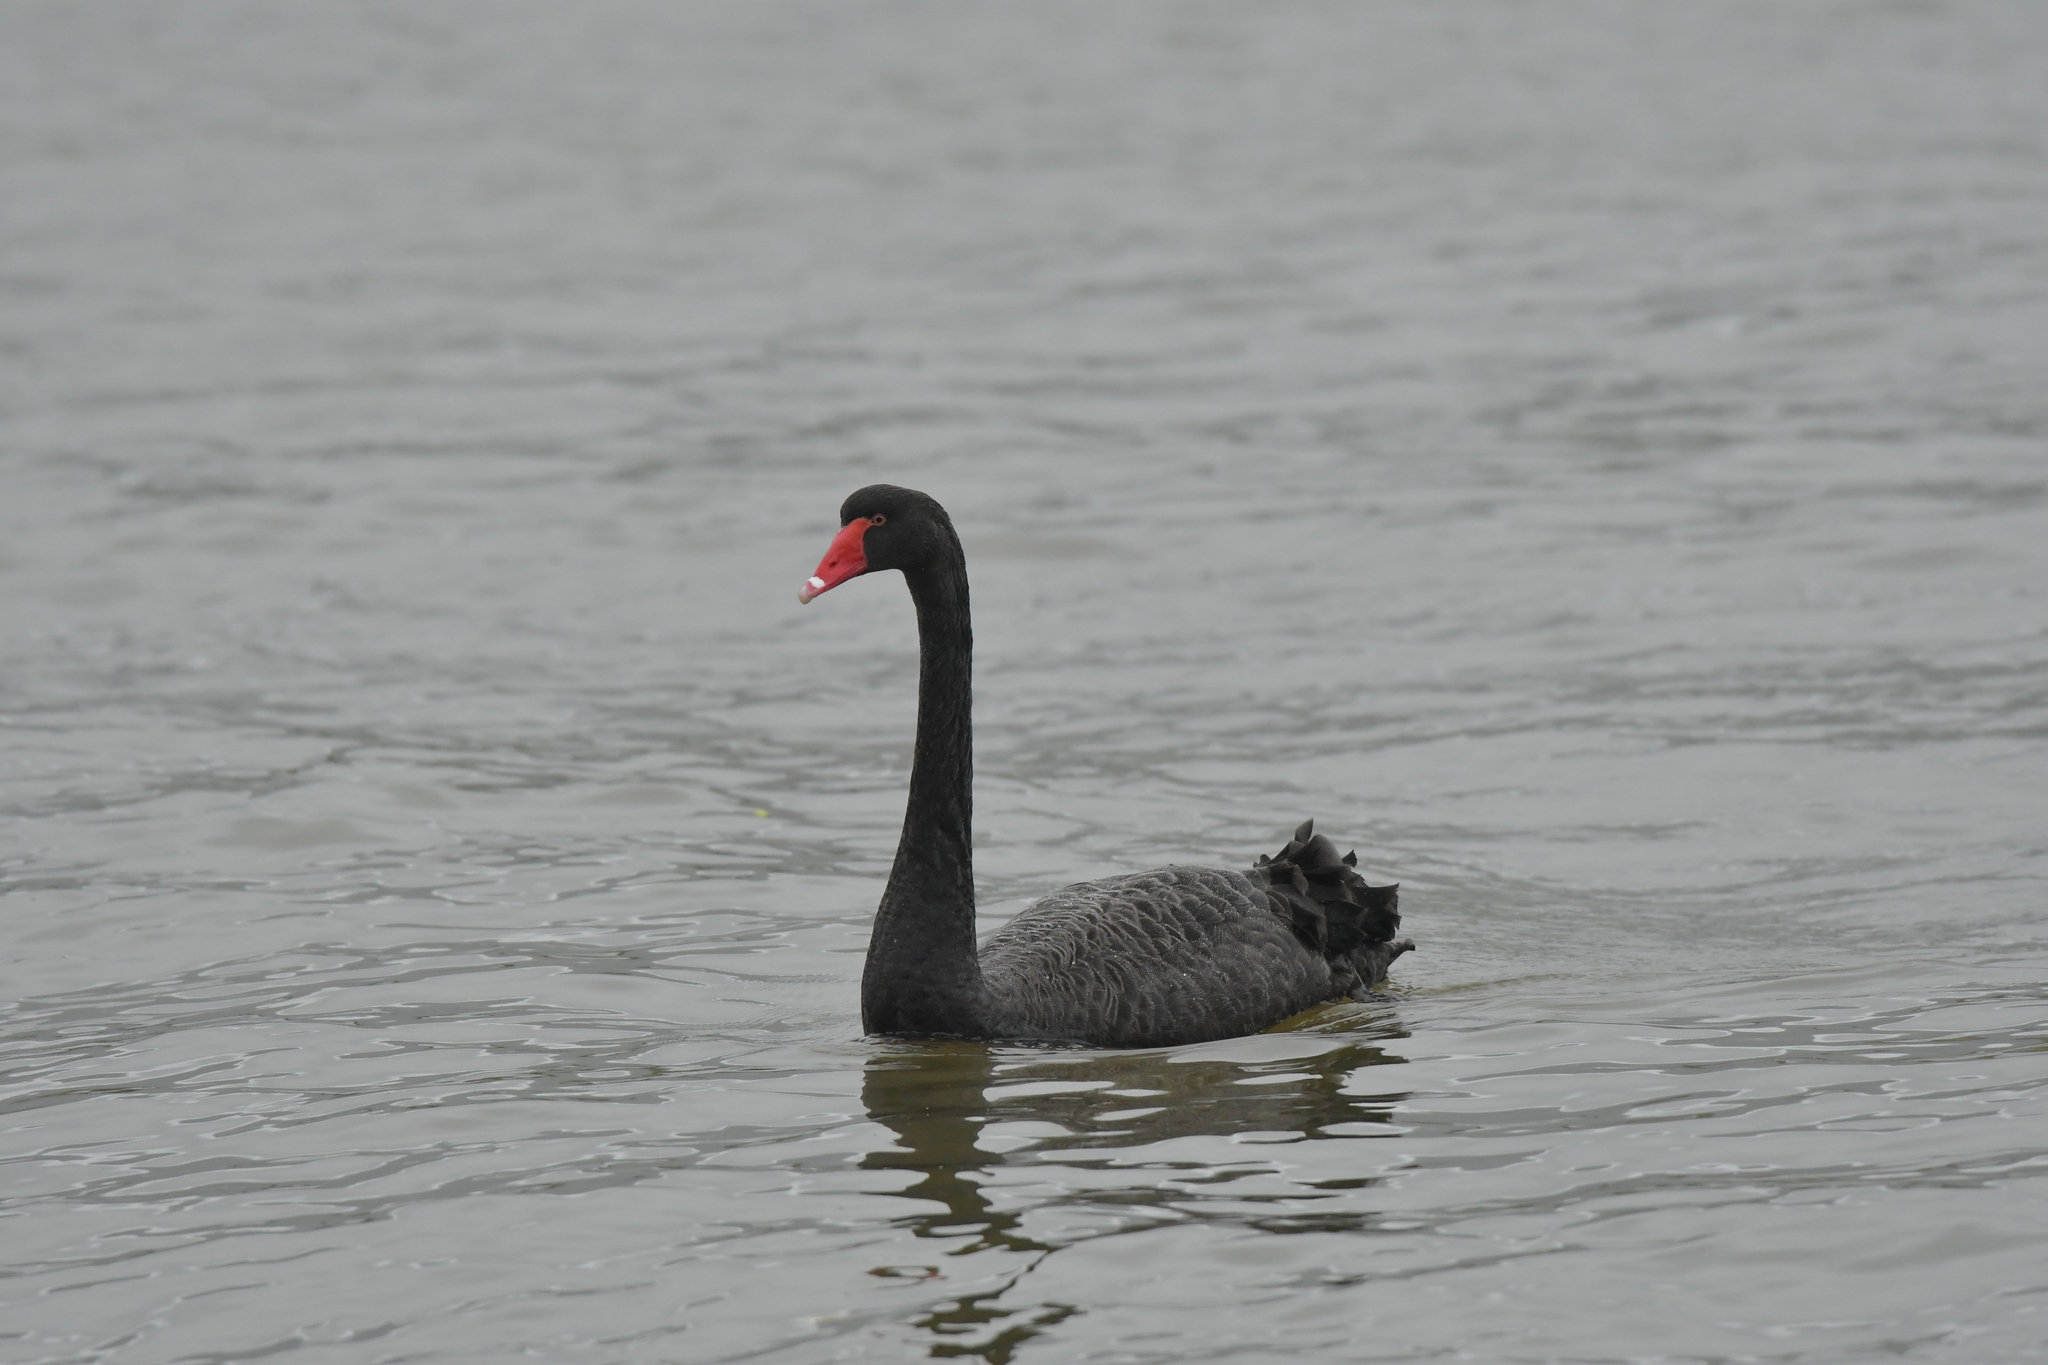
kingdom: Animalia
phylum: Chordata
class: Aves
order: Anseriformes
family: Anatidae
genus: Cygnus
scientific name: Cygnus atratus
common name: Black swan
